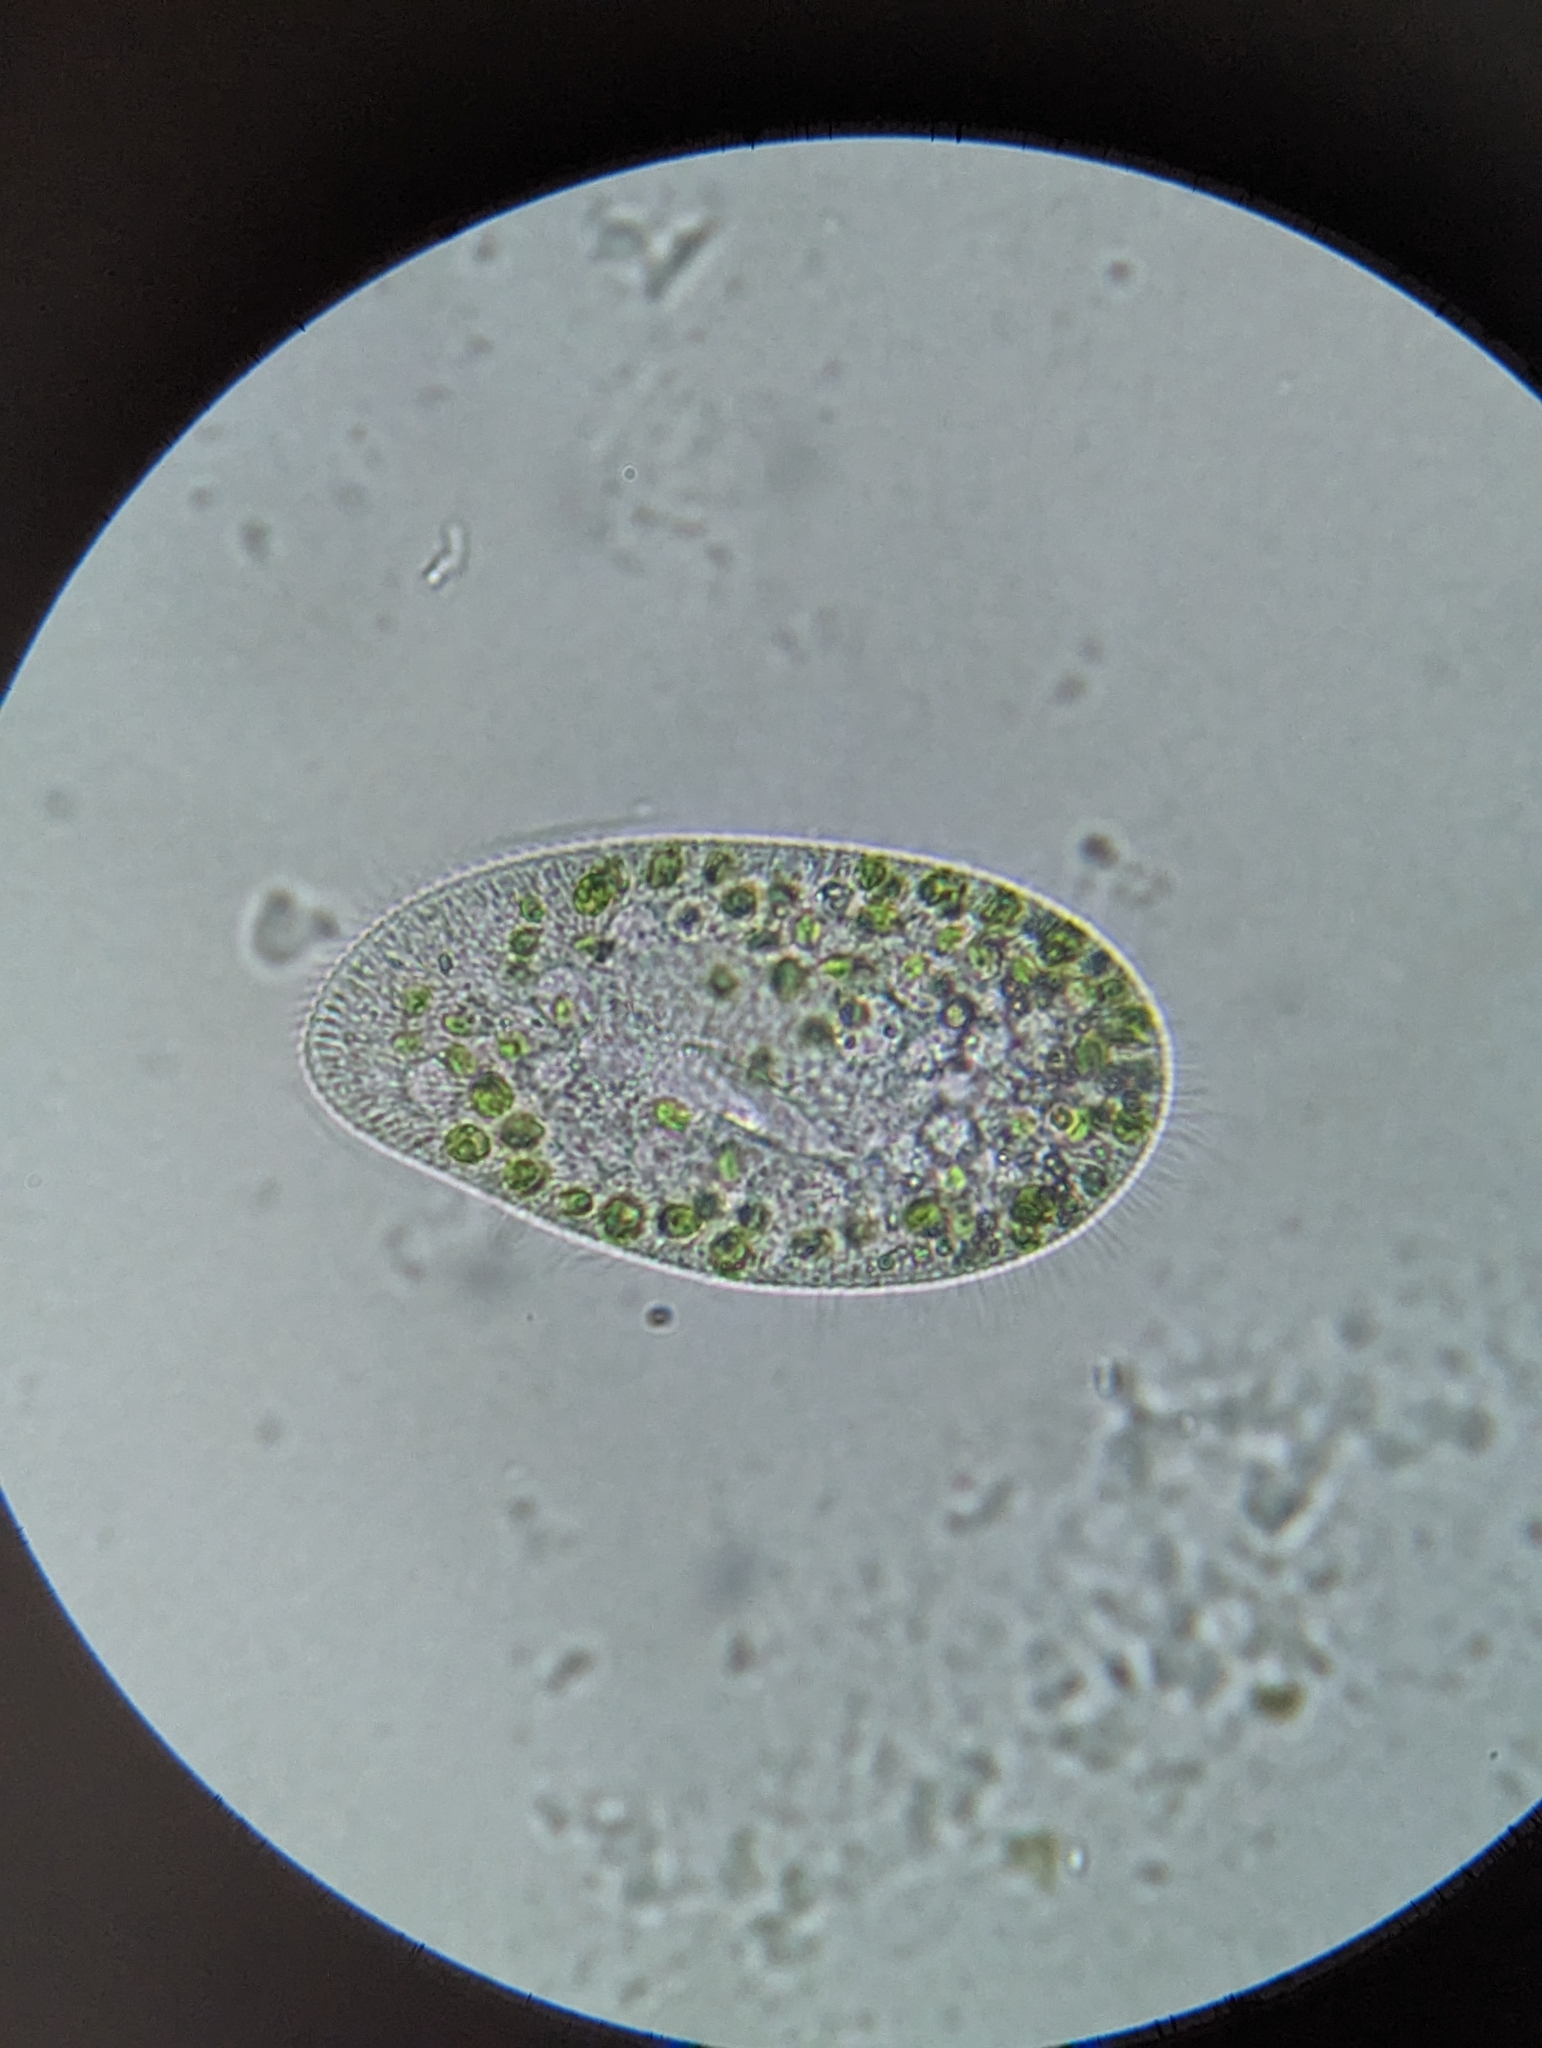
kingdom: Chromista
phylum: Ciliophora
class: Oligohymenophorea
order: Peniculida
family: Parameciidae
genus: Paramecium
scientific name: Paramecium
